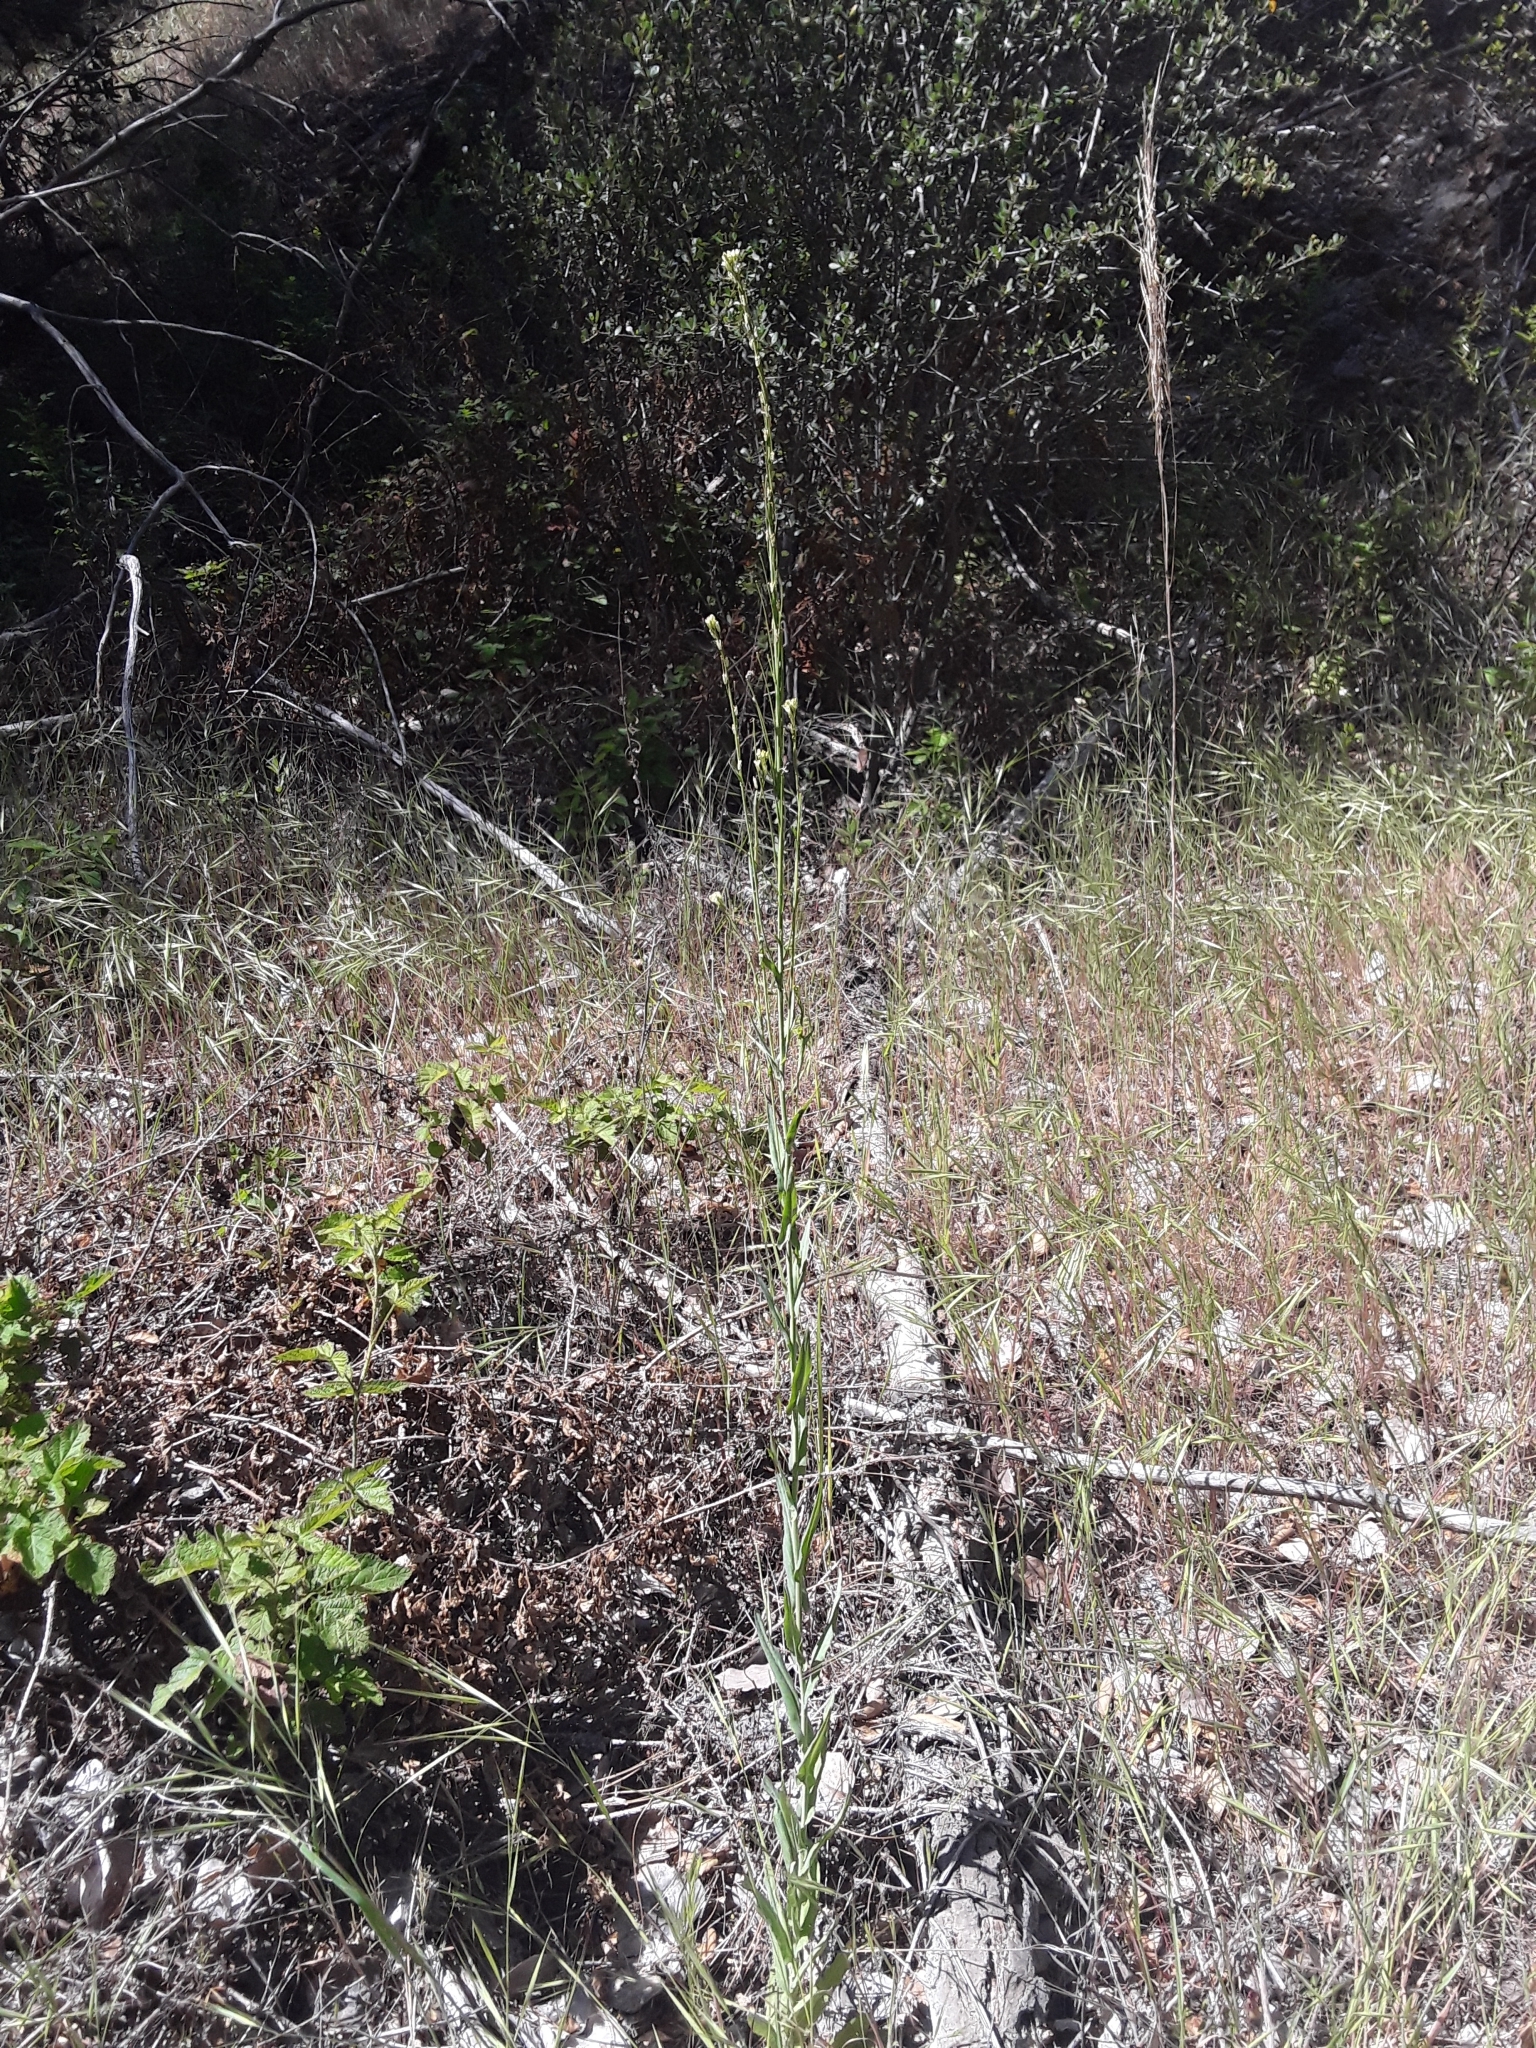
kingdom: Plantae
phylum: Tracheophyta
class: Magnoliopsida
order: Brassicales
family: Brassicaceae
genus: Turritis
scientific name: Turritis glabra
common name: Tower rockcress
